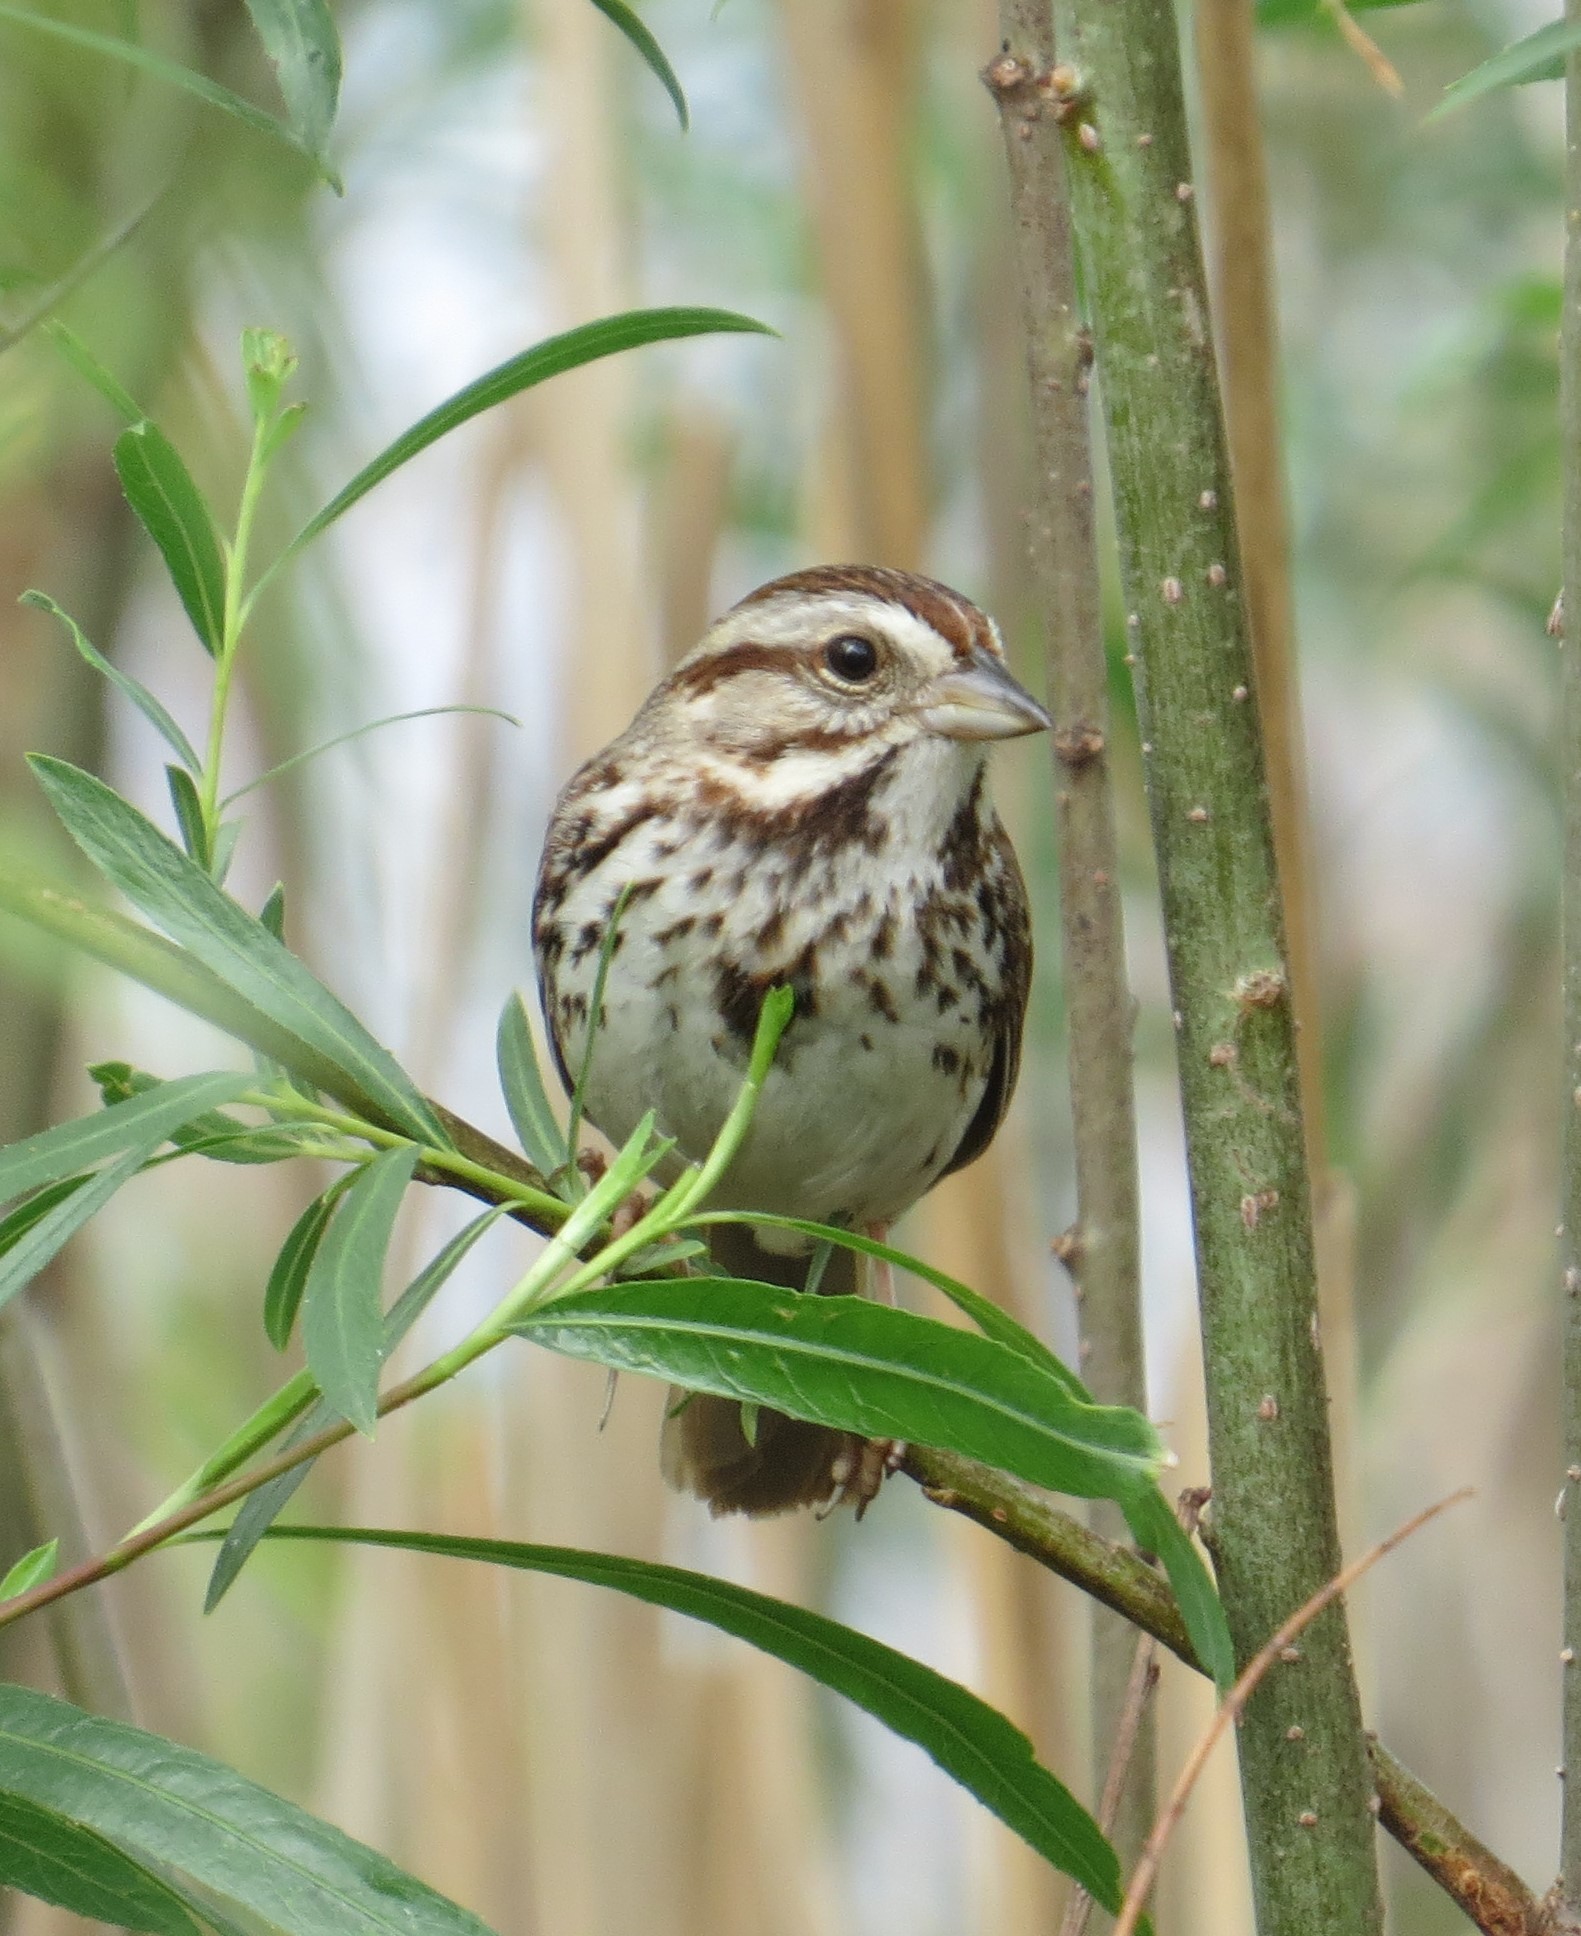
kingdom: Animalia
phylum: Chordata
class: Aves
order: Passeriformes
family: Passerellidae
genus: Melospiza
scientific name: Melospiza melodia
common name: Song sparrow
